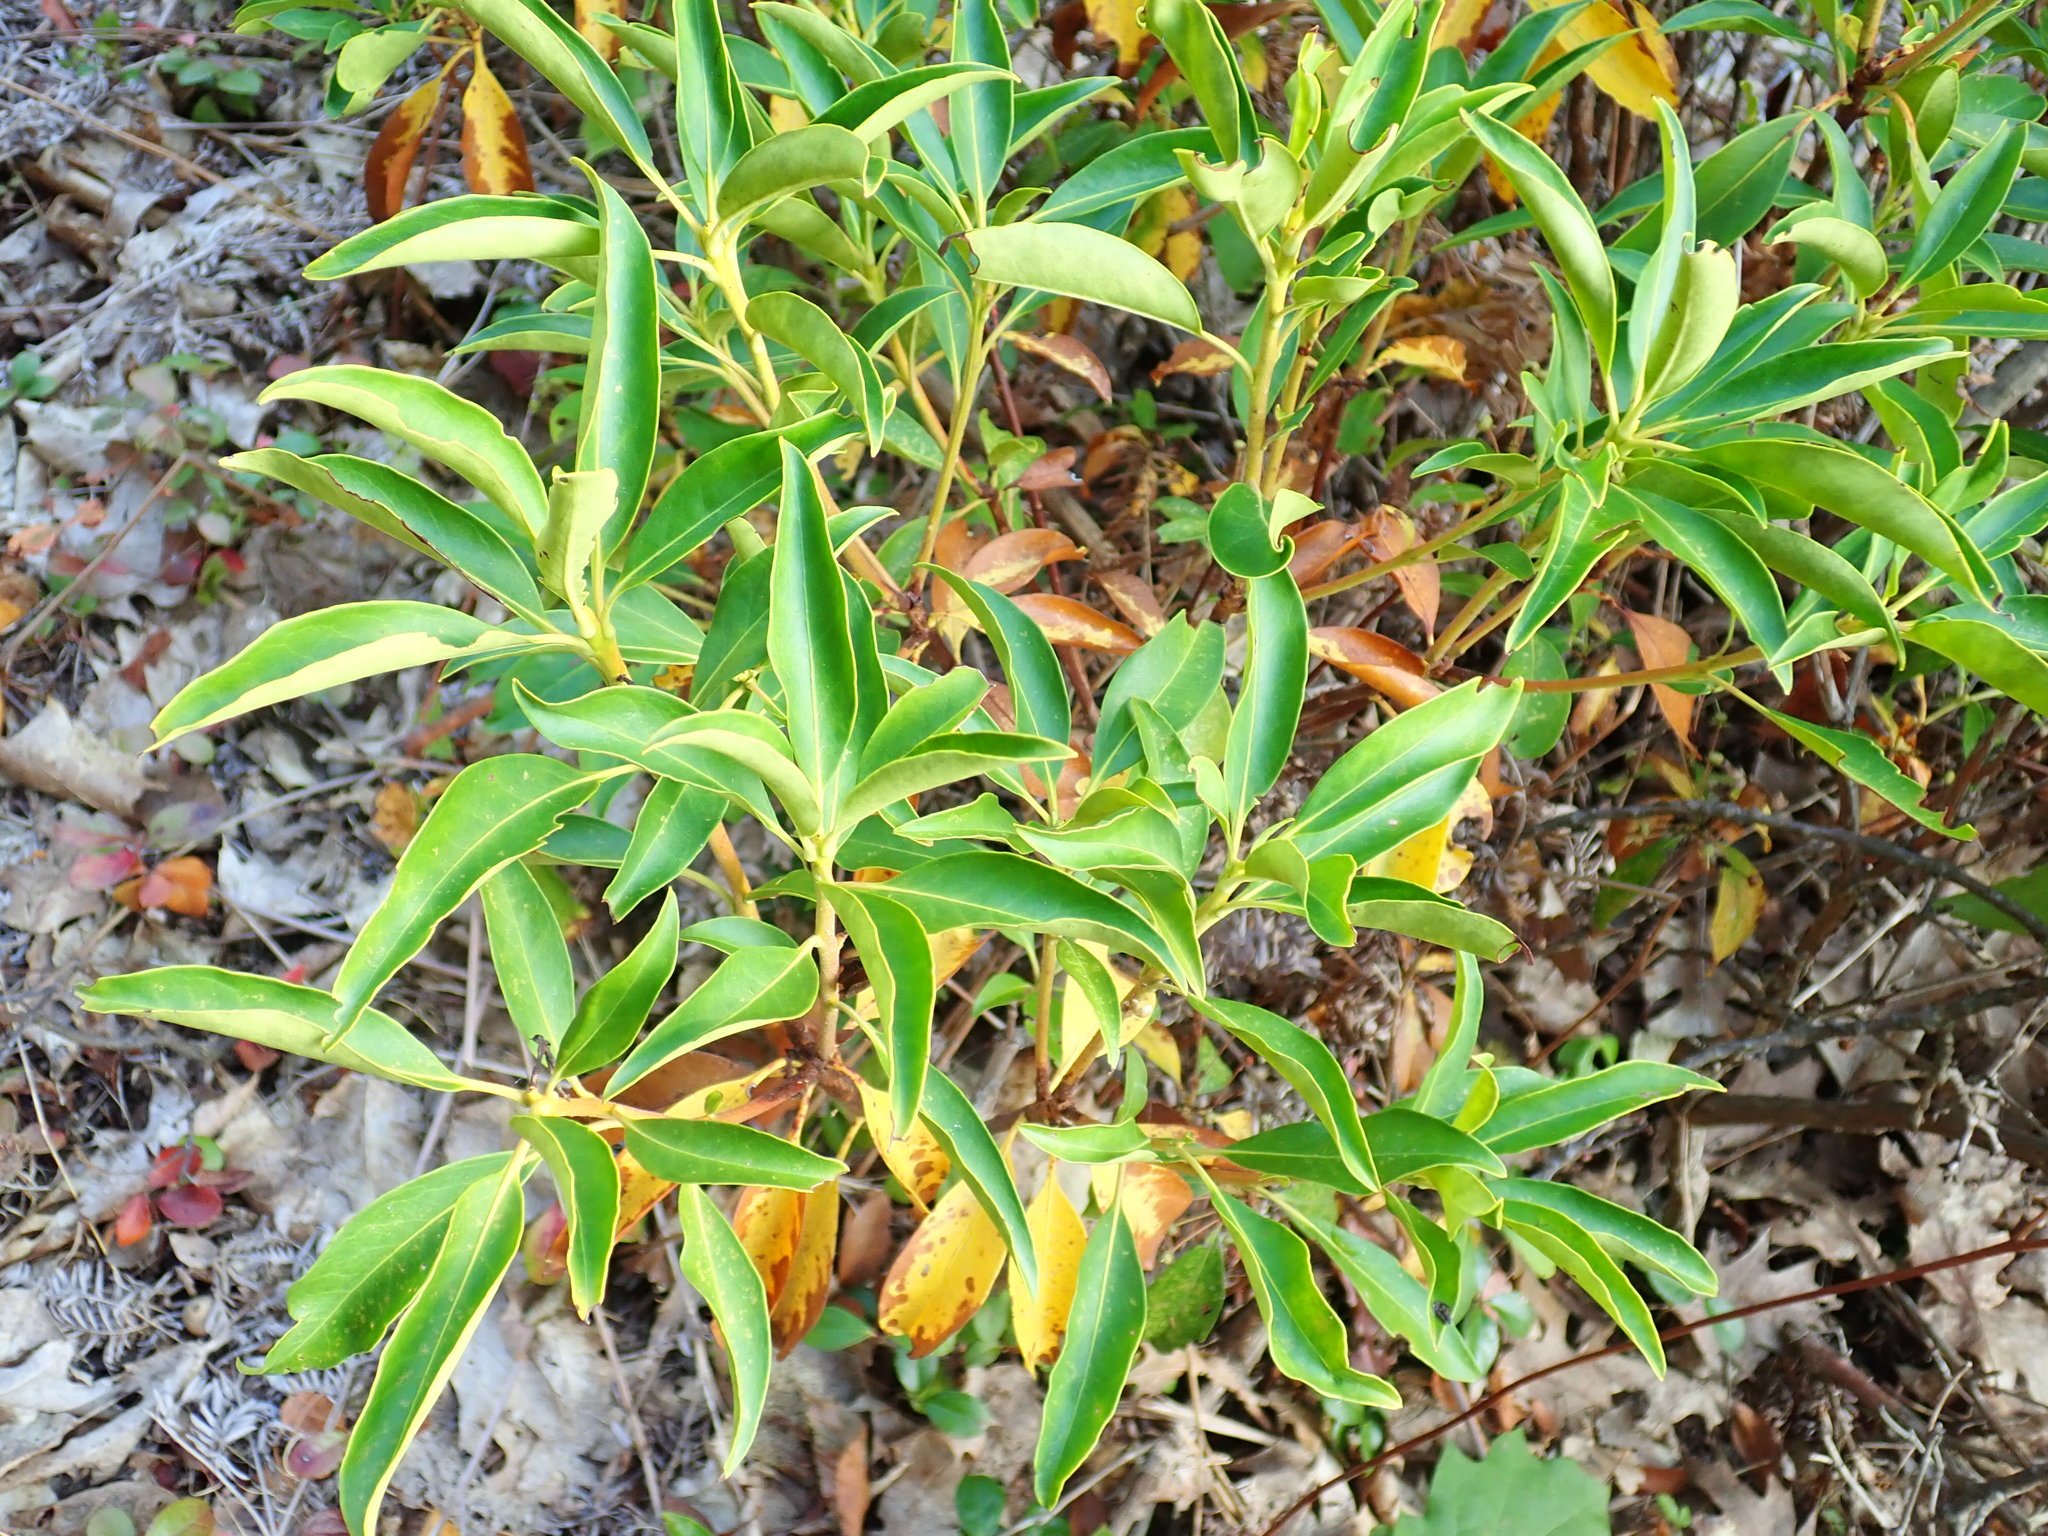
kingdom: Plantae
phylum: Tracheophyta
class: Magnoliopsida
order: Ericales
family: Ericaceae
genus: Kalmia
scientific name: Kalmia latifolia
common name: Mountain-laurel
